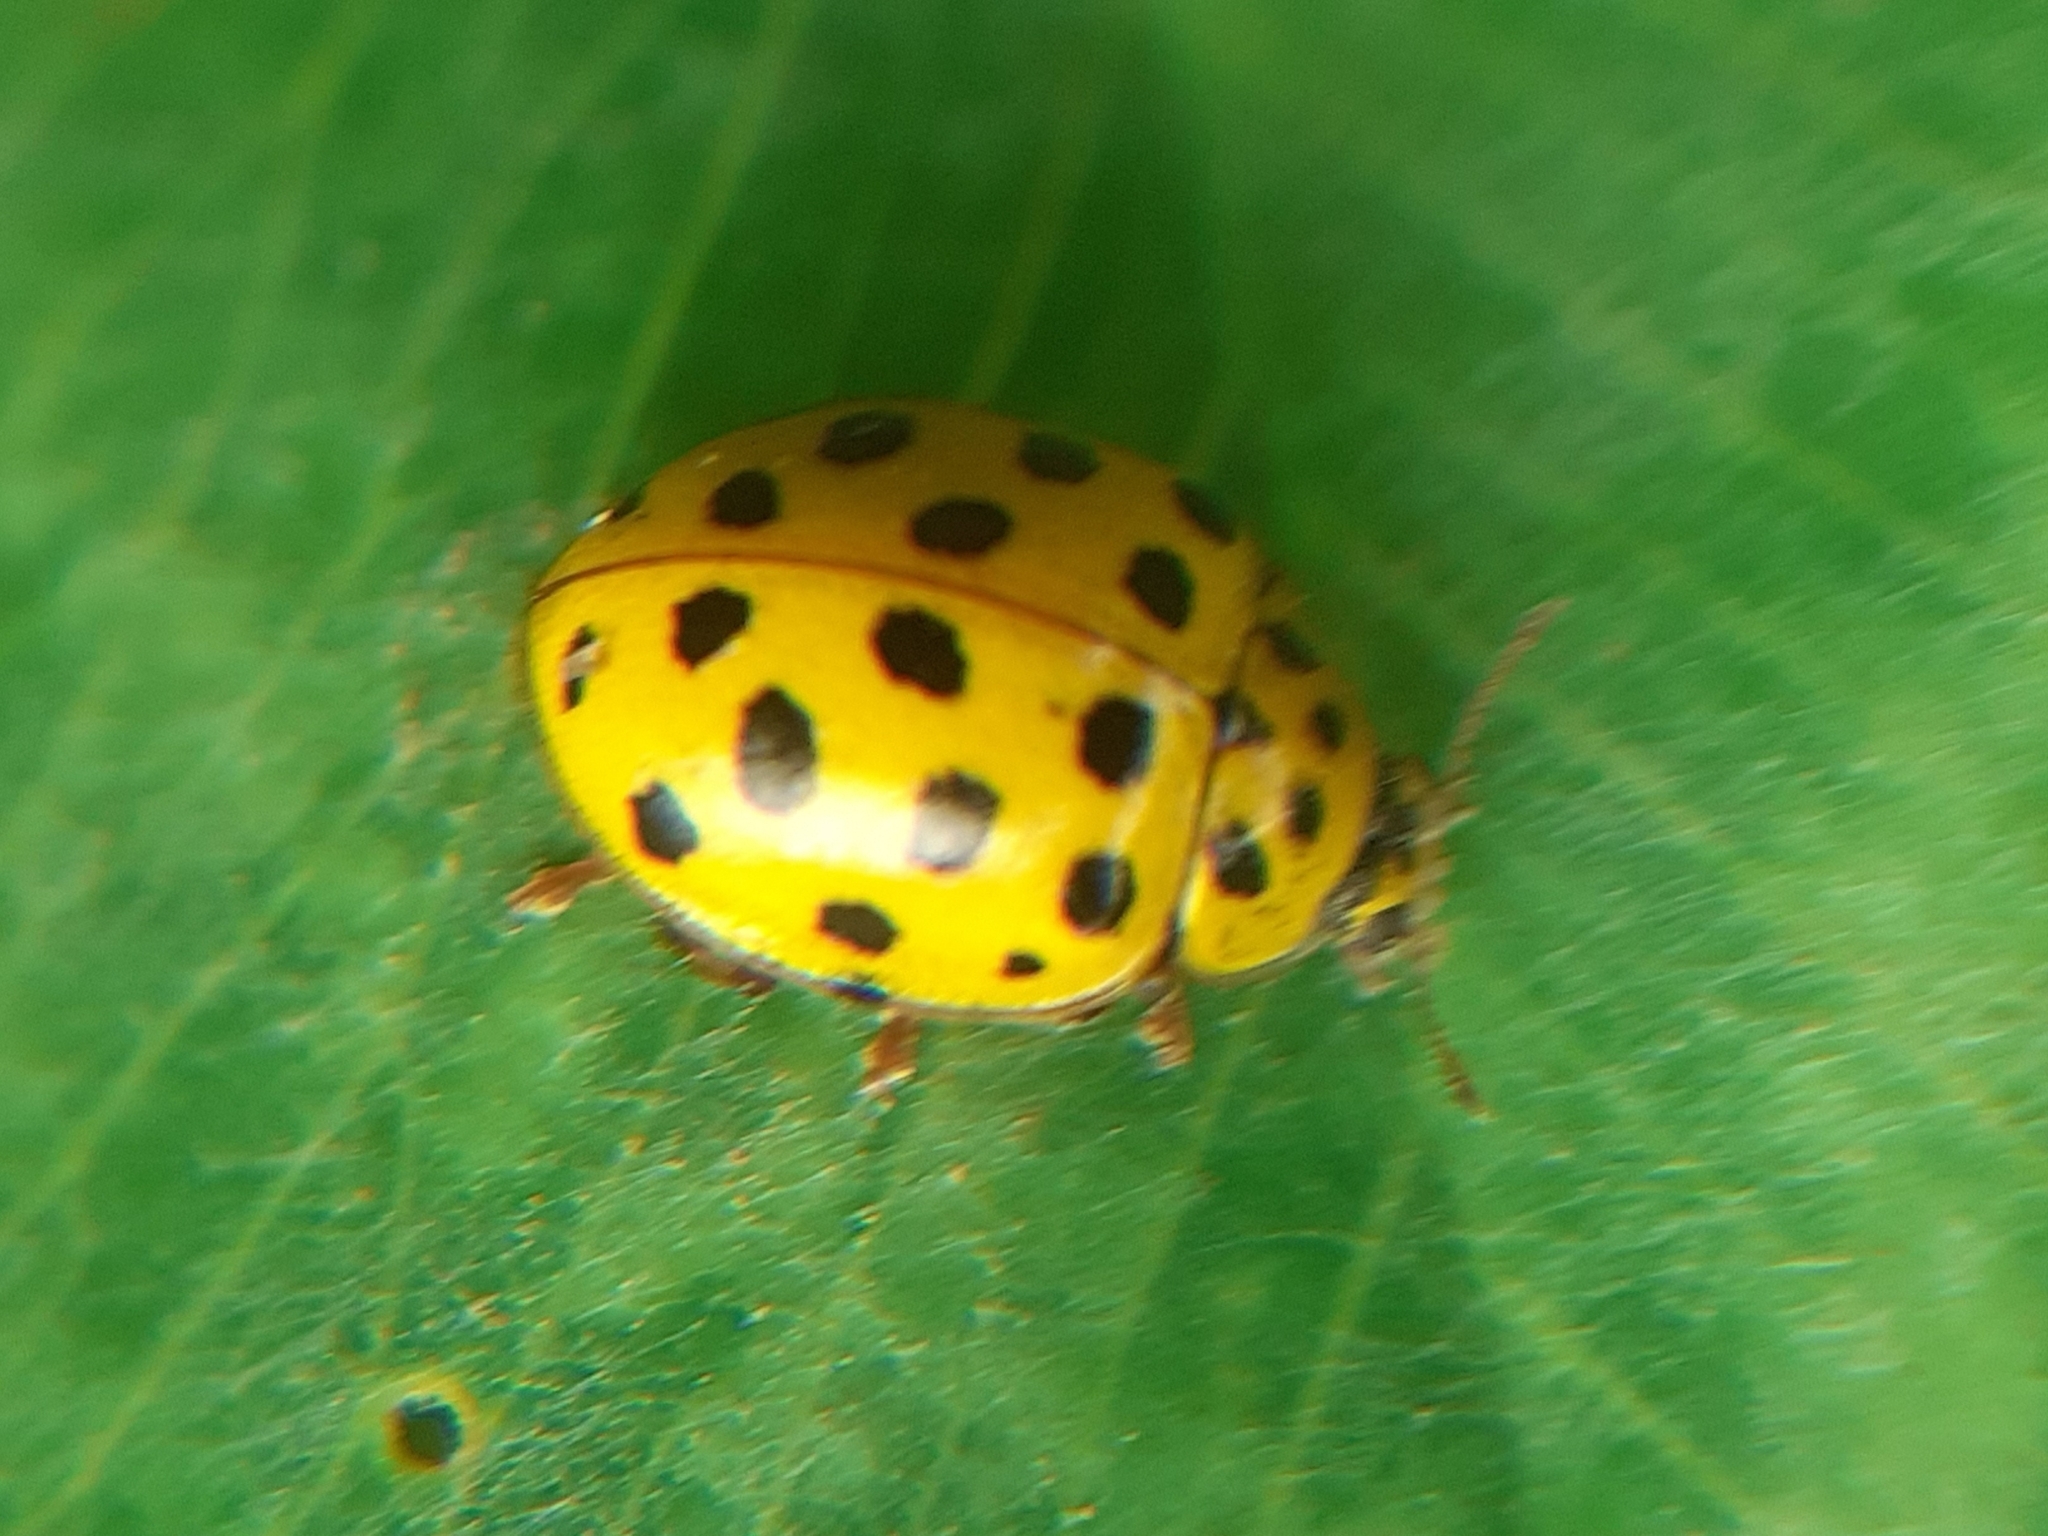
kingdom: Animalia
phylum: Arthropoda
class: Insecta
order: Coleoptera
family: Coccinellidae
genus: Psyllobora
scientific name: Psyllobora vigintiduopunctata
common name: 22-spot ladybird
